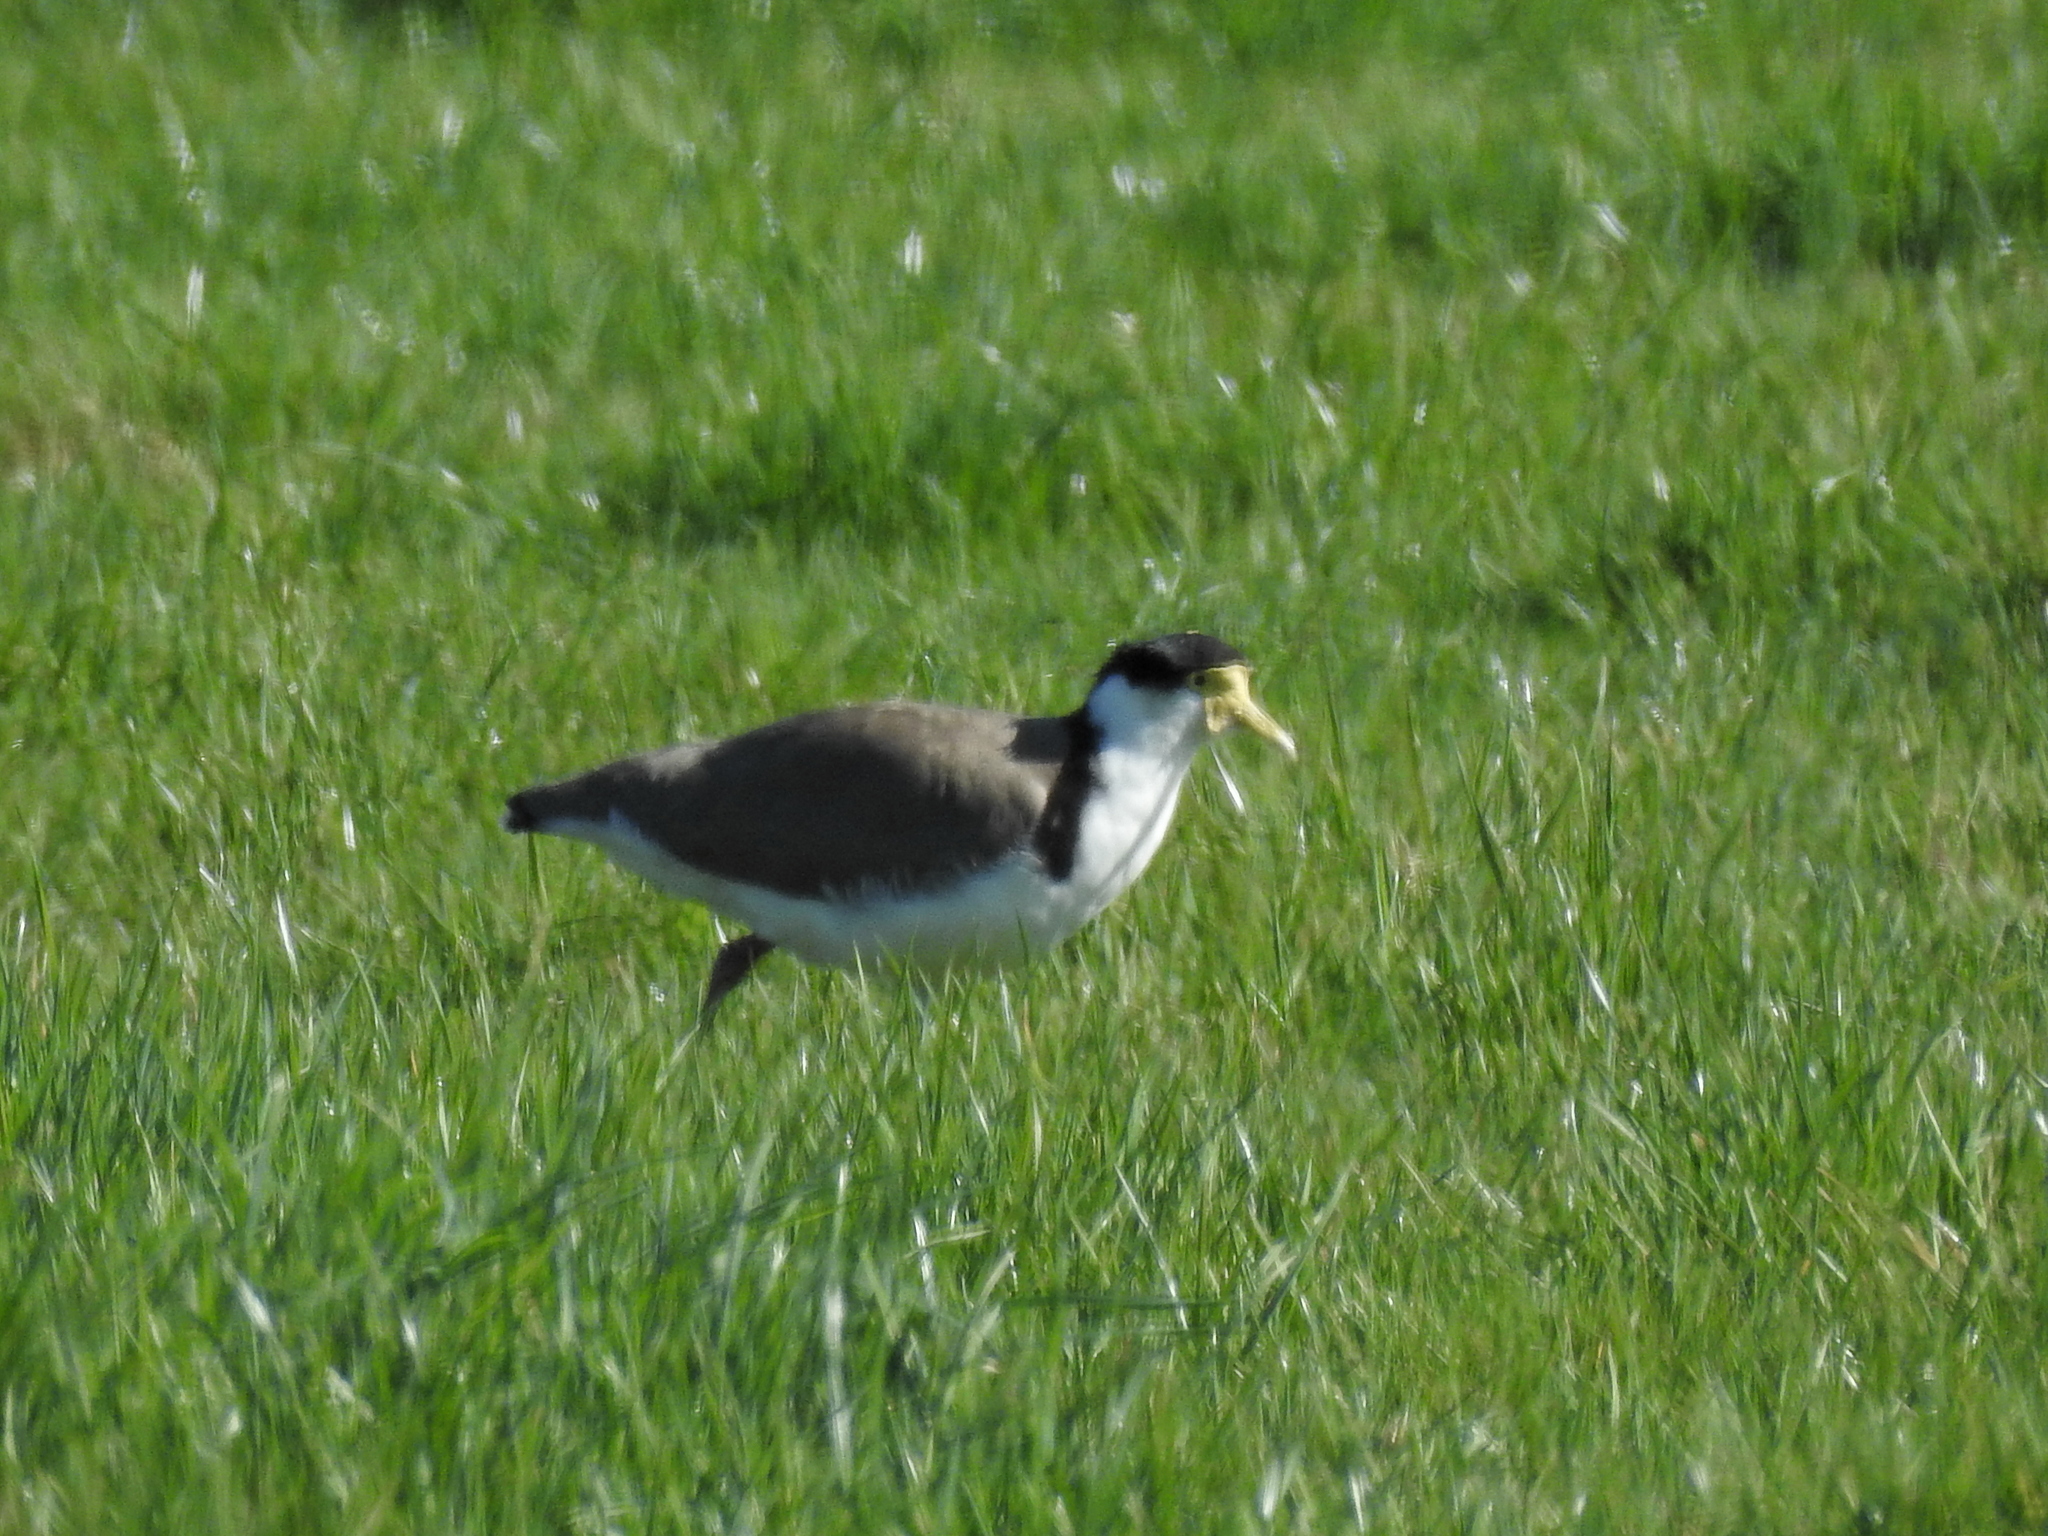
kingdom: Animalia
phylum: Chordata
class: Aves
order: Charadriiformes
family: Charadriidae
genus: Vanellus
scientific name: Vanellus miles
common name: Masked lapwing
